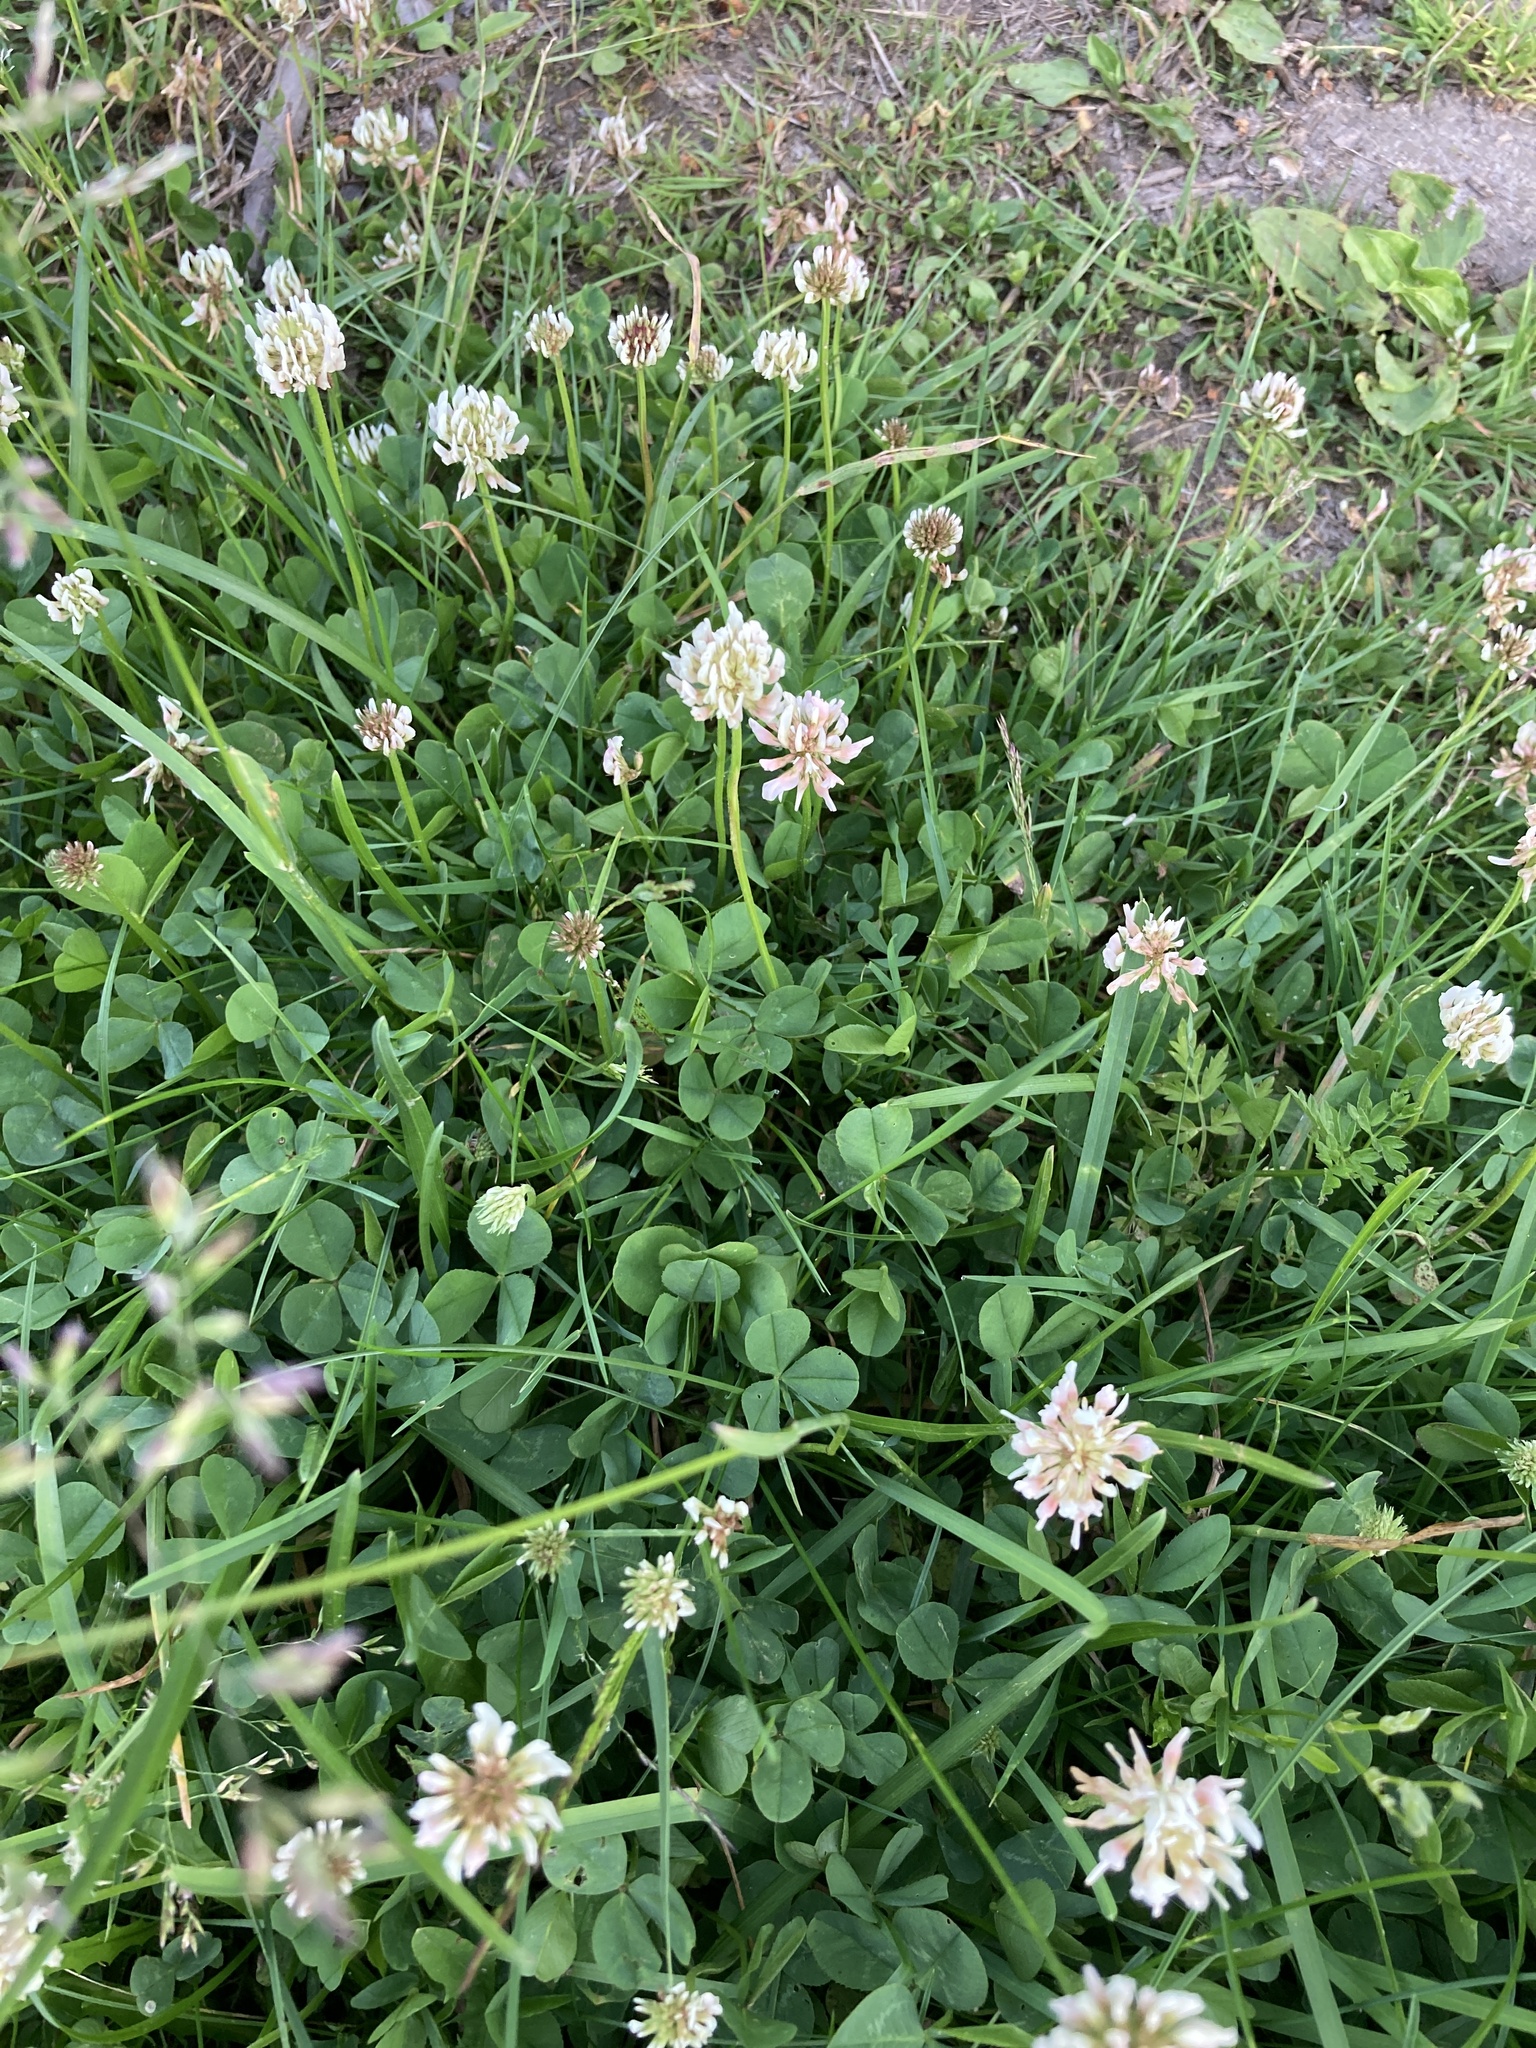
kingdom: Plantae
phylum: Tracheophyta
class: Magnoliopsida
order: Fabales
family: Fabaceae
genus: Trifolium
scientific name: Trifolium repens
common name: White clover
